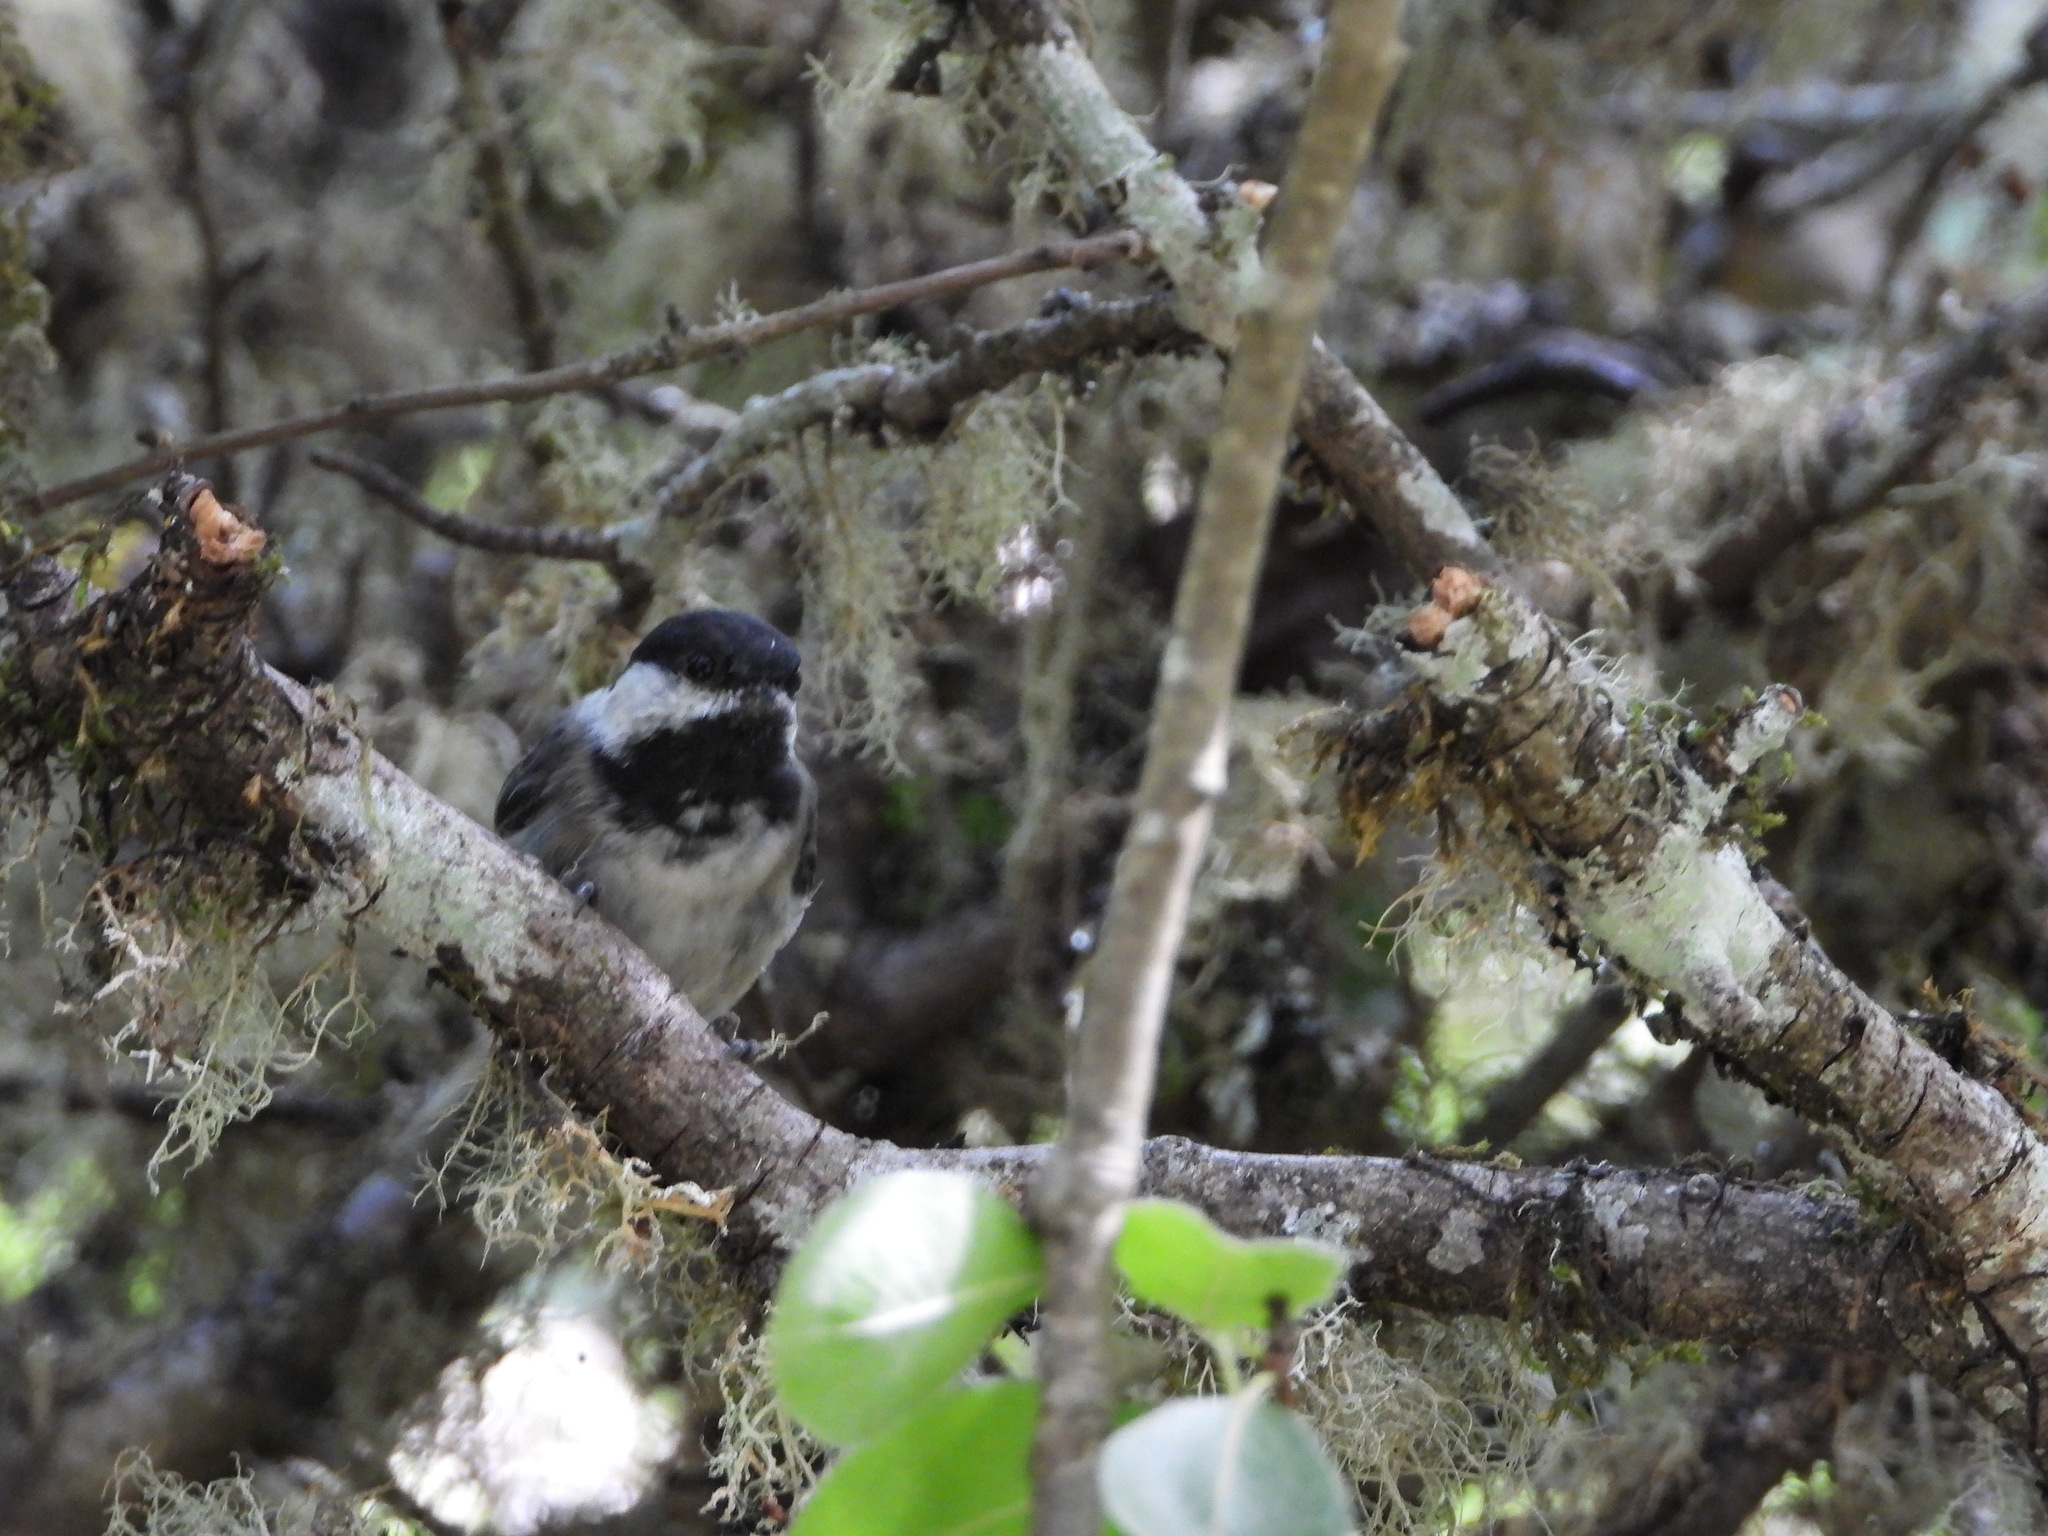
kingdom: Animalia
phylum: Chordata
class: Aves
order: Passeriformes
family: Paridae
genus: Poecile
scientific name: Poecile atricapillus
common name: Black-capped chickadee
